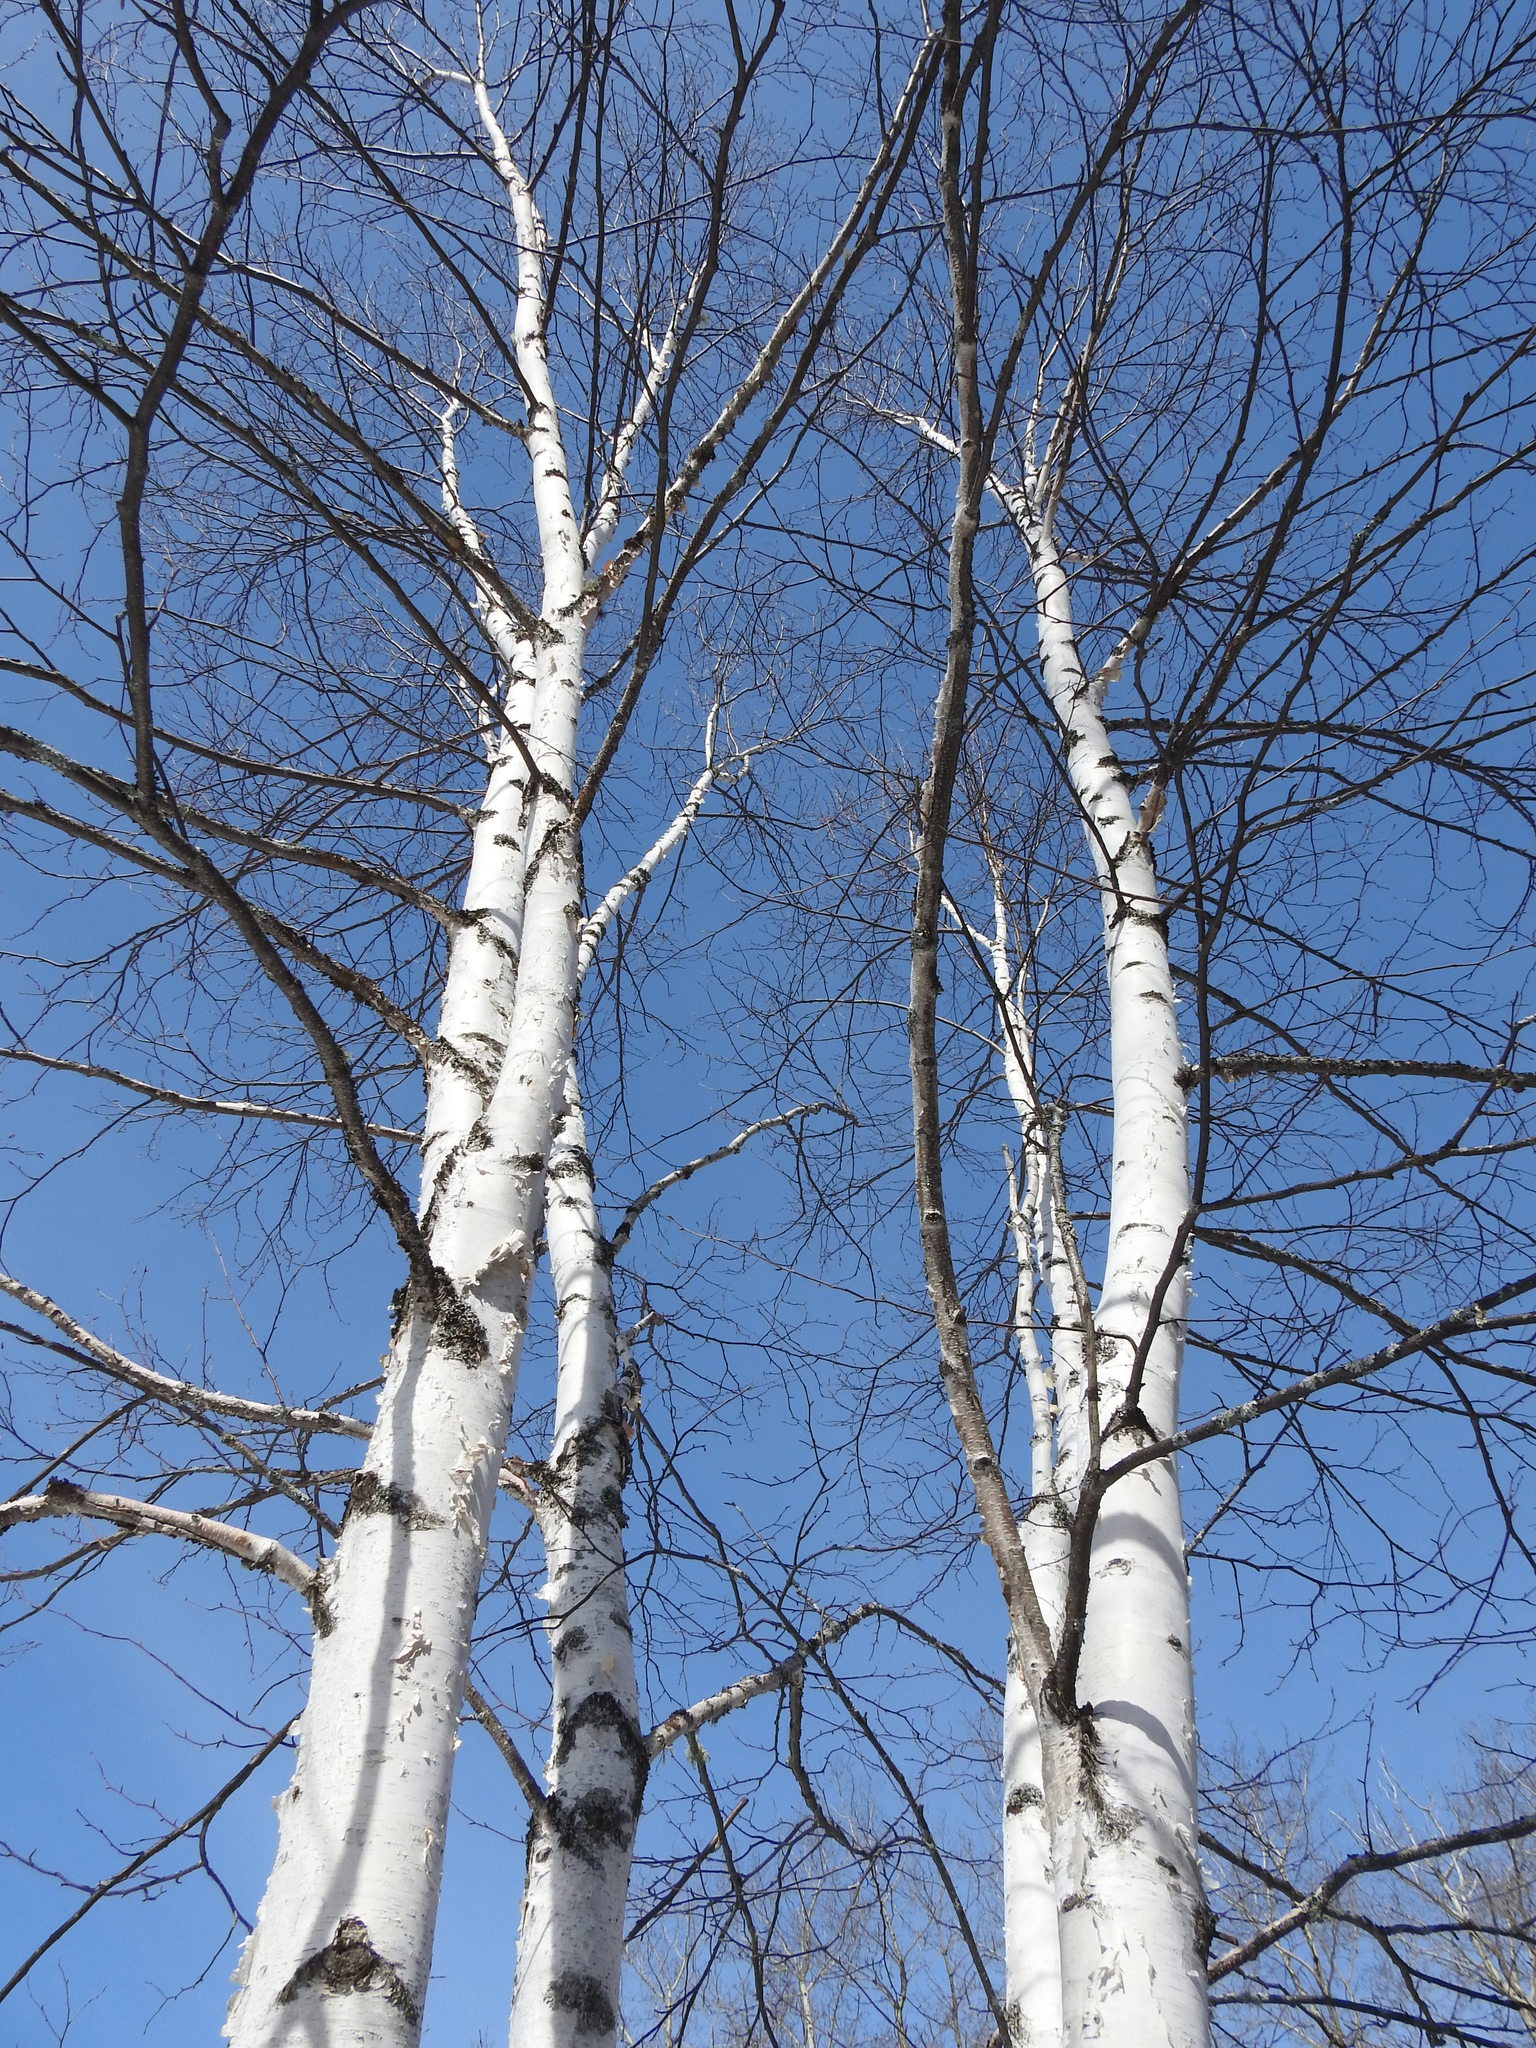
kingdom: Plantae
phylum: Tracheophyta
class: Magnoliopsida
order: Fagales
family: Betulaceae
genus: Betula
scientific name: Betula papyrifera
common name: Paper birch
